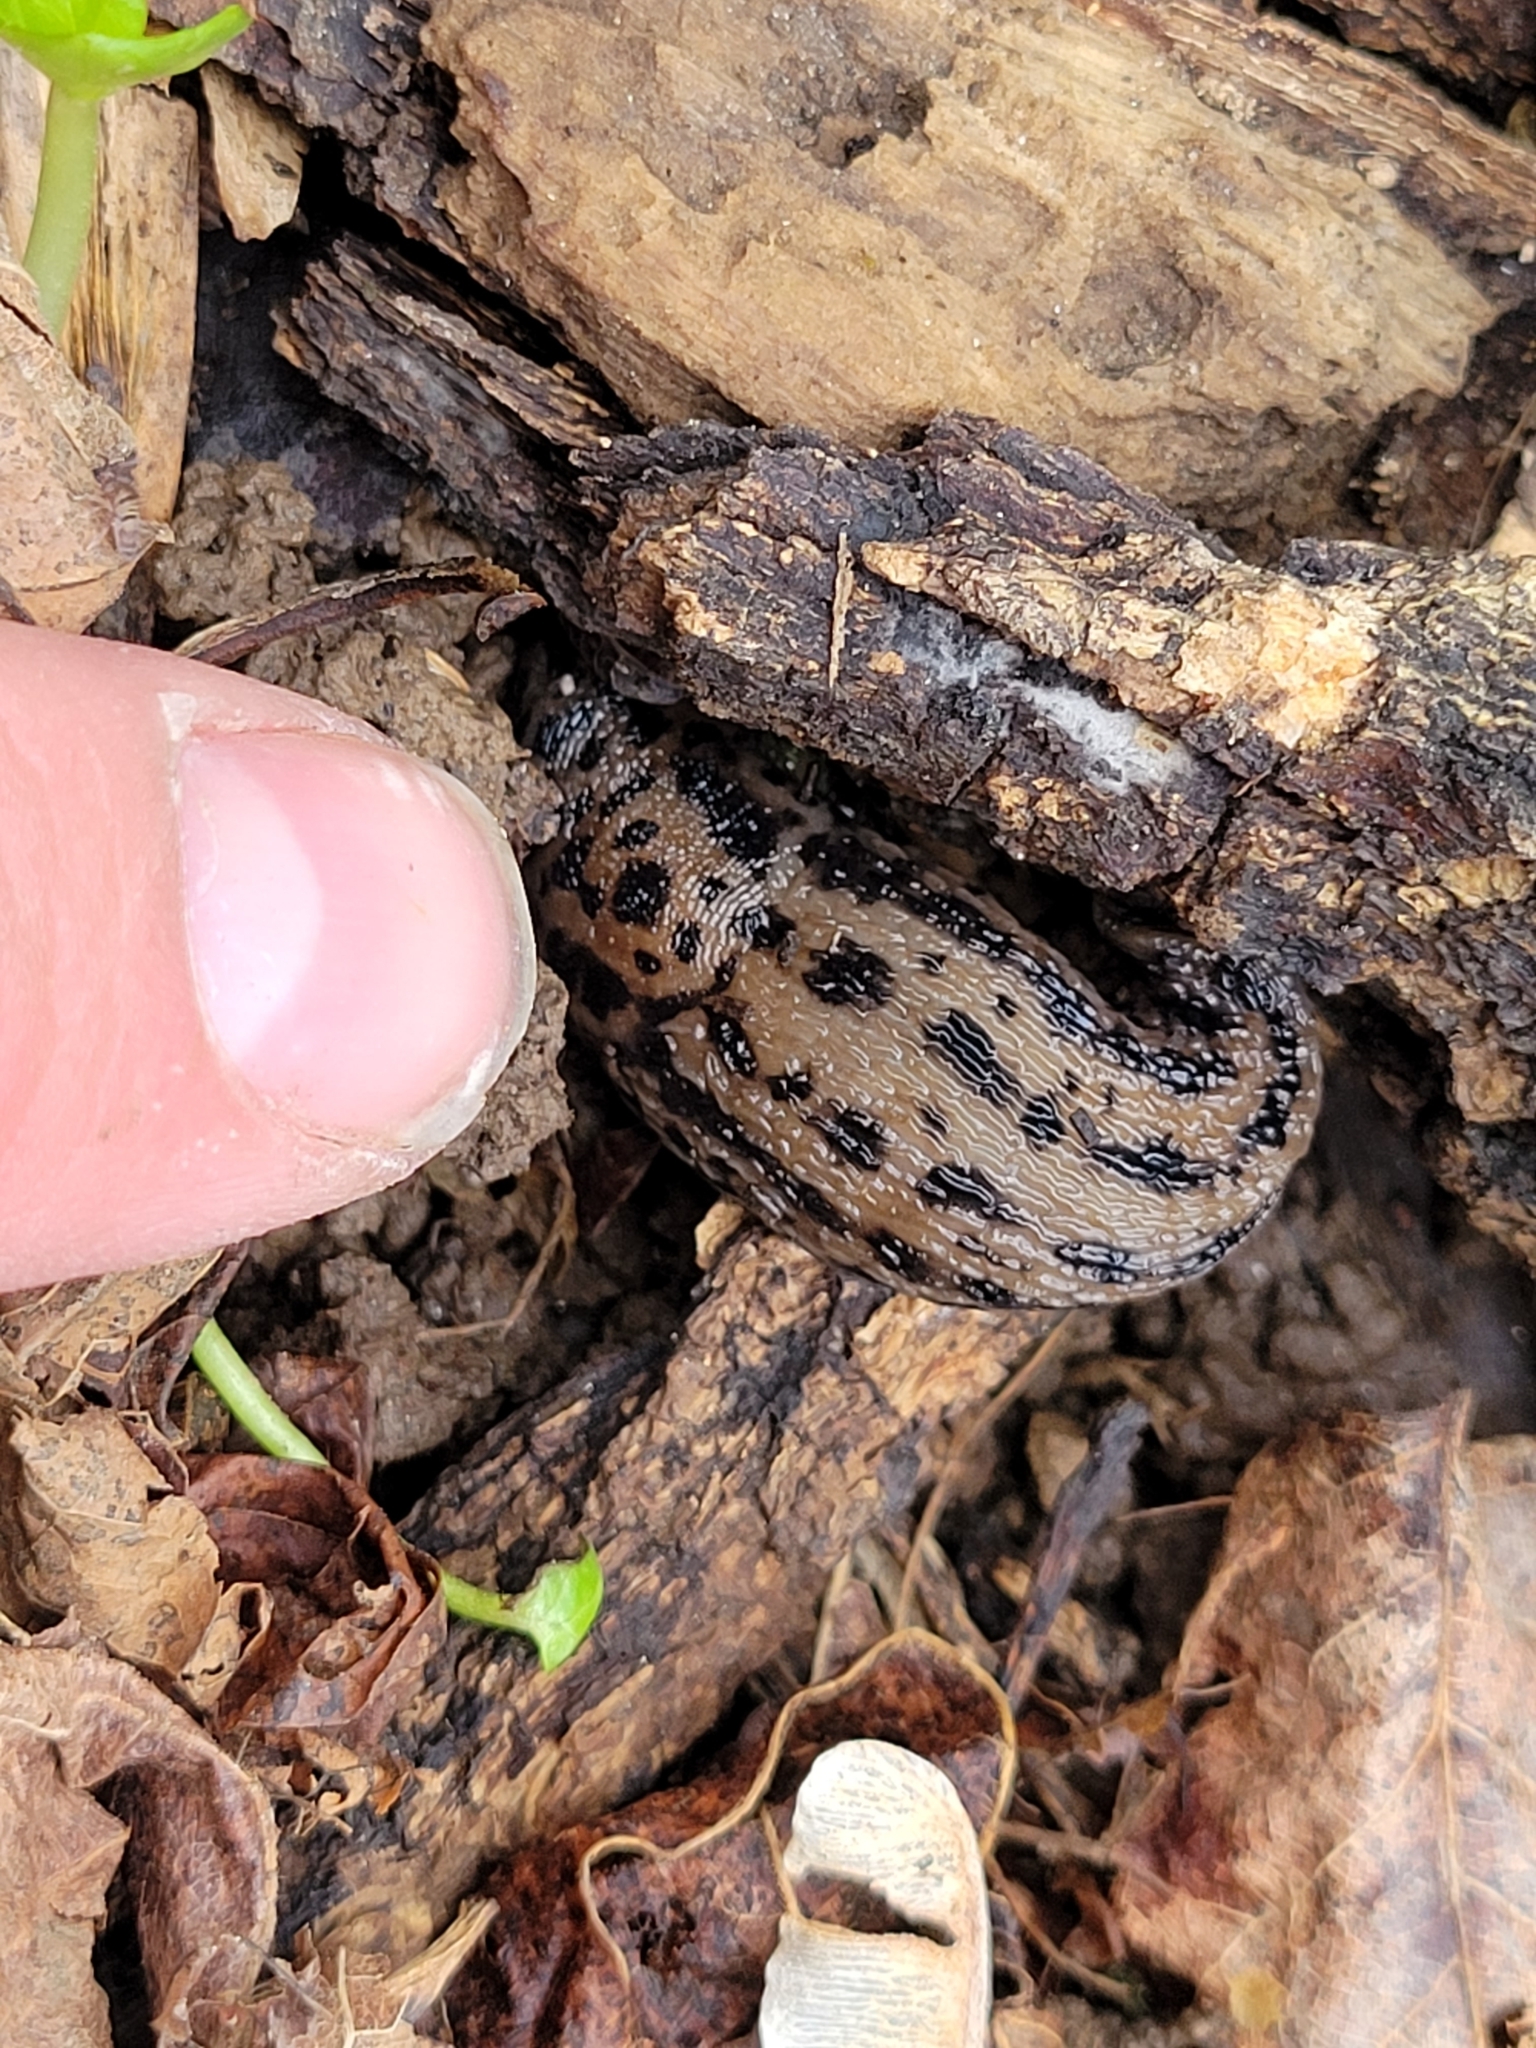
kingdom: Animalia
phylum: Mollusca
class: Gastropoda
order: Stylommatophora
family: Limacidae
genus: Limax
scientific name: Limax maximus
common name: Great grey slug
